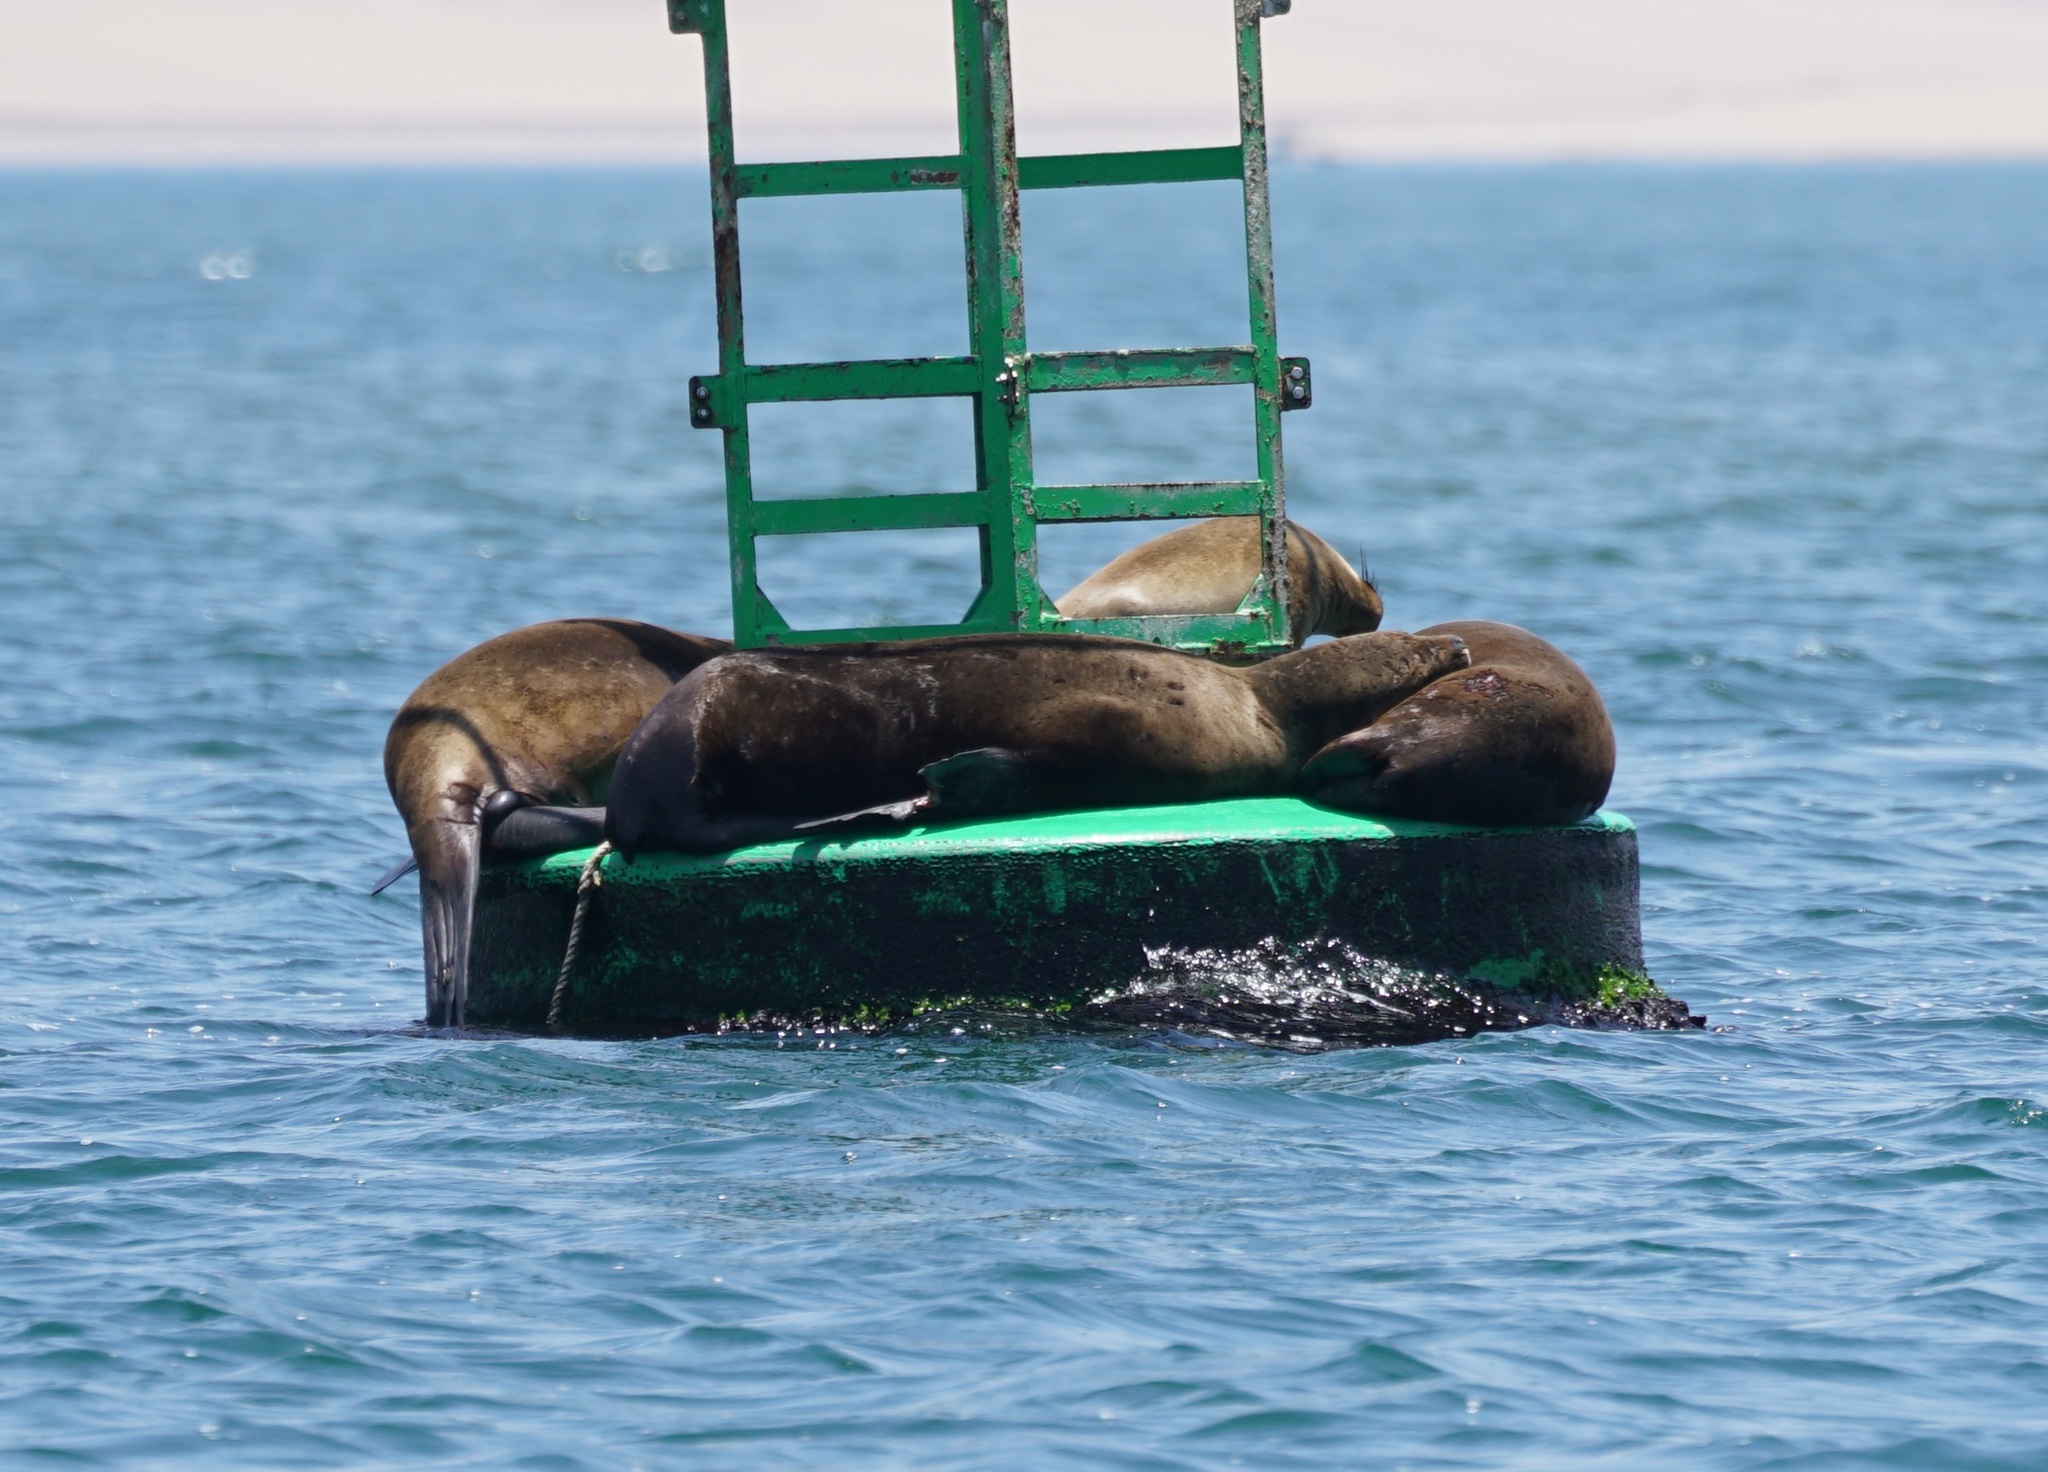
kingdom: Animalia
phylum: Chordata
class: Mammalia
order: Carnivora
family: Otariidae
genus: Otaria
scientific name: Otaria byronia
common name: South american sea lion
